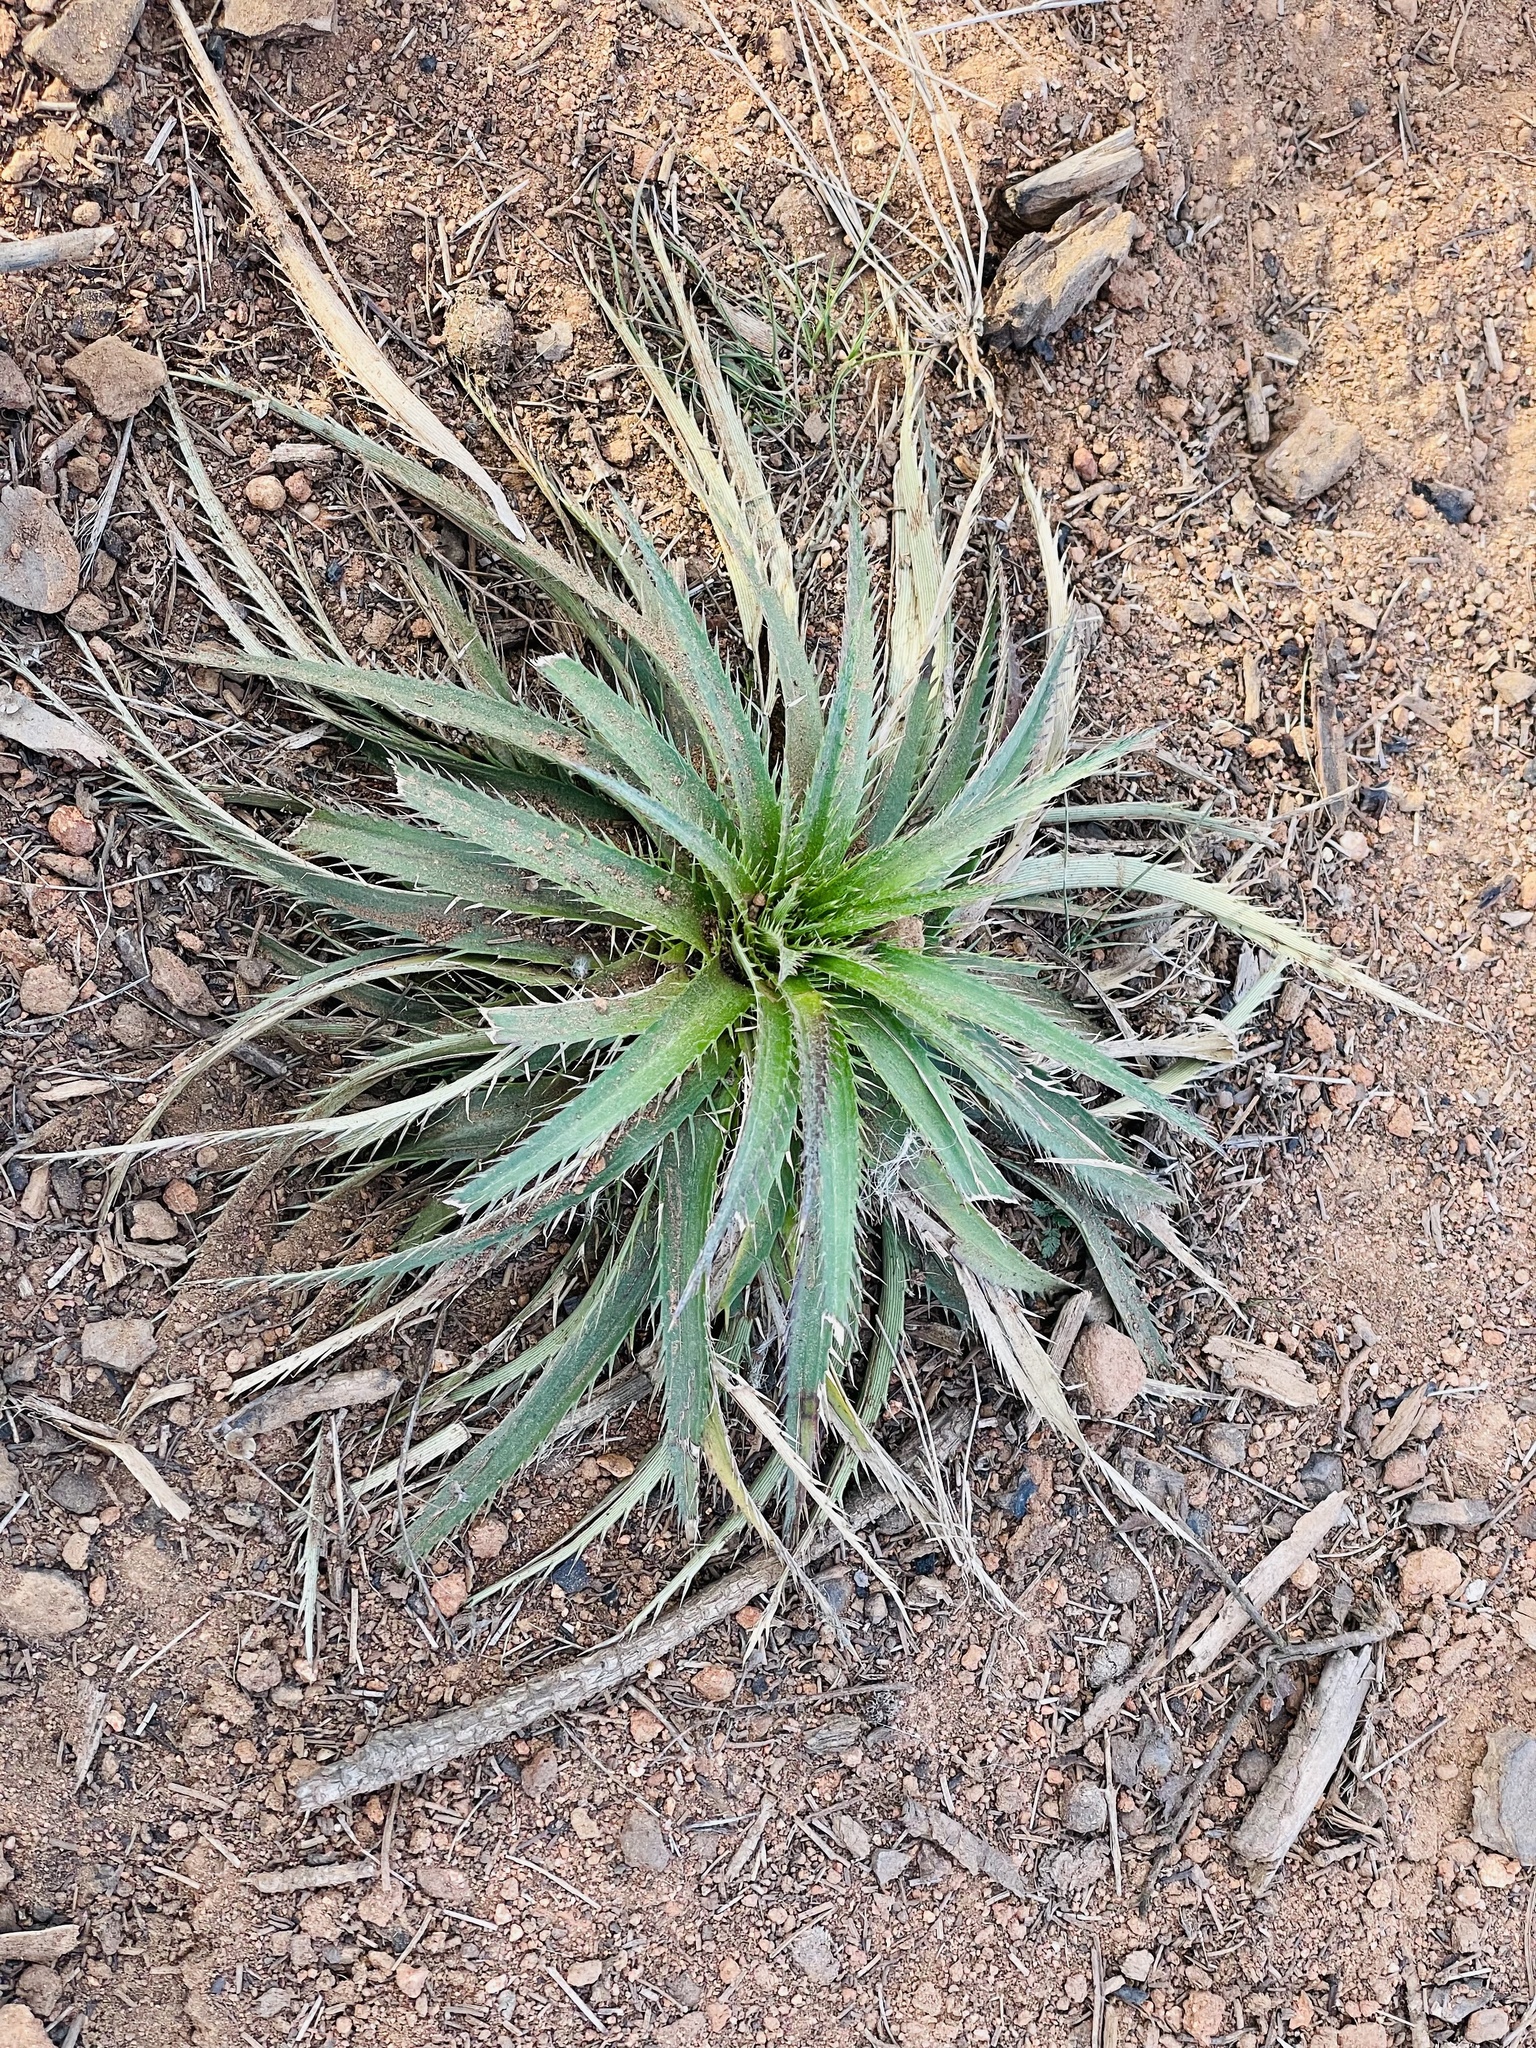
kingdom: Plantae
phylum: Tracheophyta
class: Magnoliopsida
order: Apiales
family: Apiaceae
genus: Eryngium
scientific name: Eryngium humboldtii
